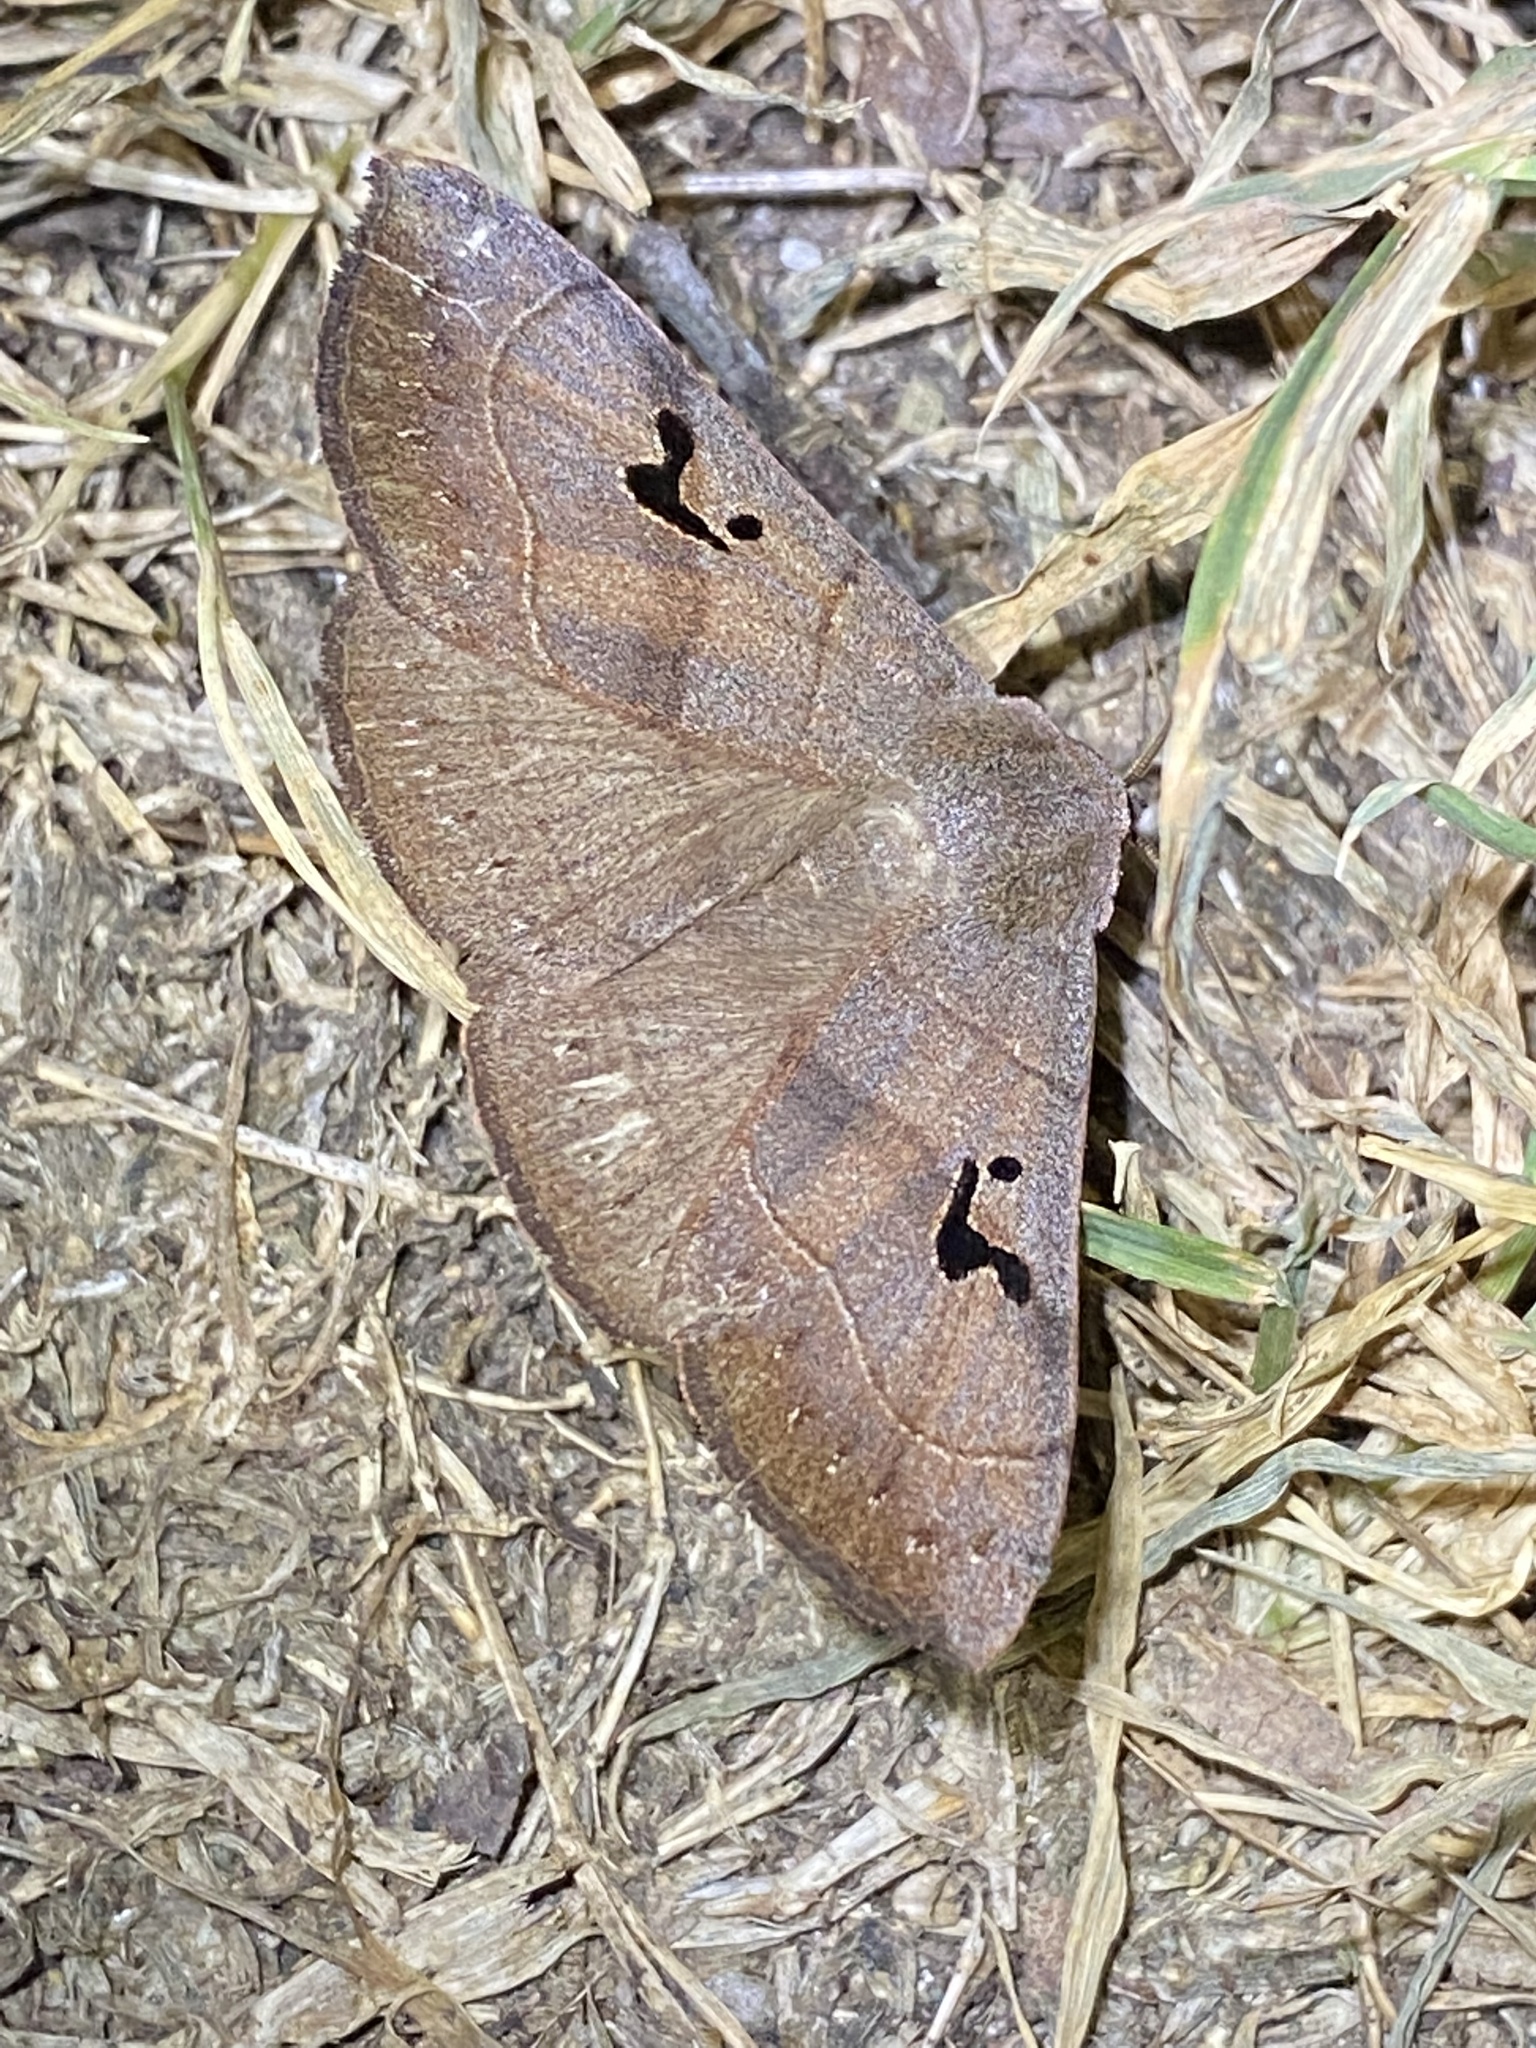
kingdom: Animalia
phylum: Arthropoda
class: Insecta
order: Lepidoptera
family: Erebidae
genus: Panopoda
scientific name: Panopoda carneicosta
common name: Brown panopoda moth
